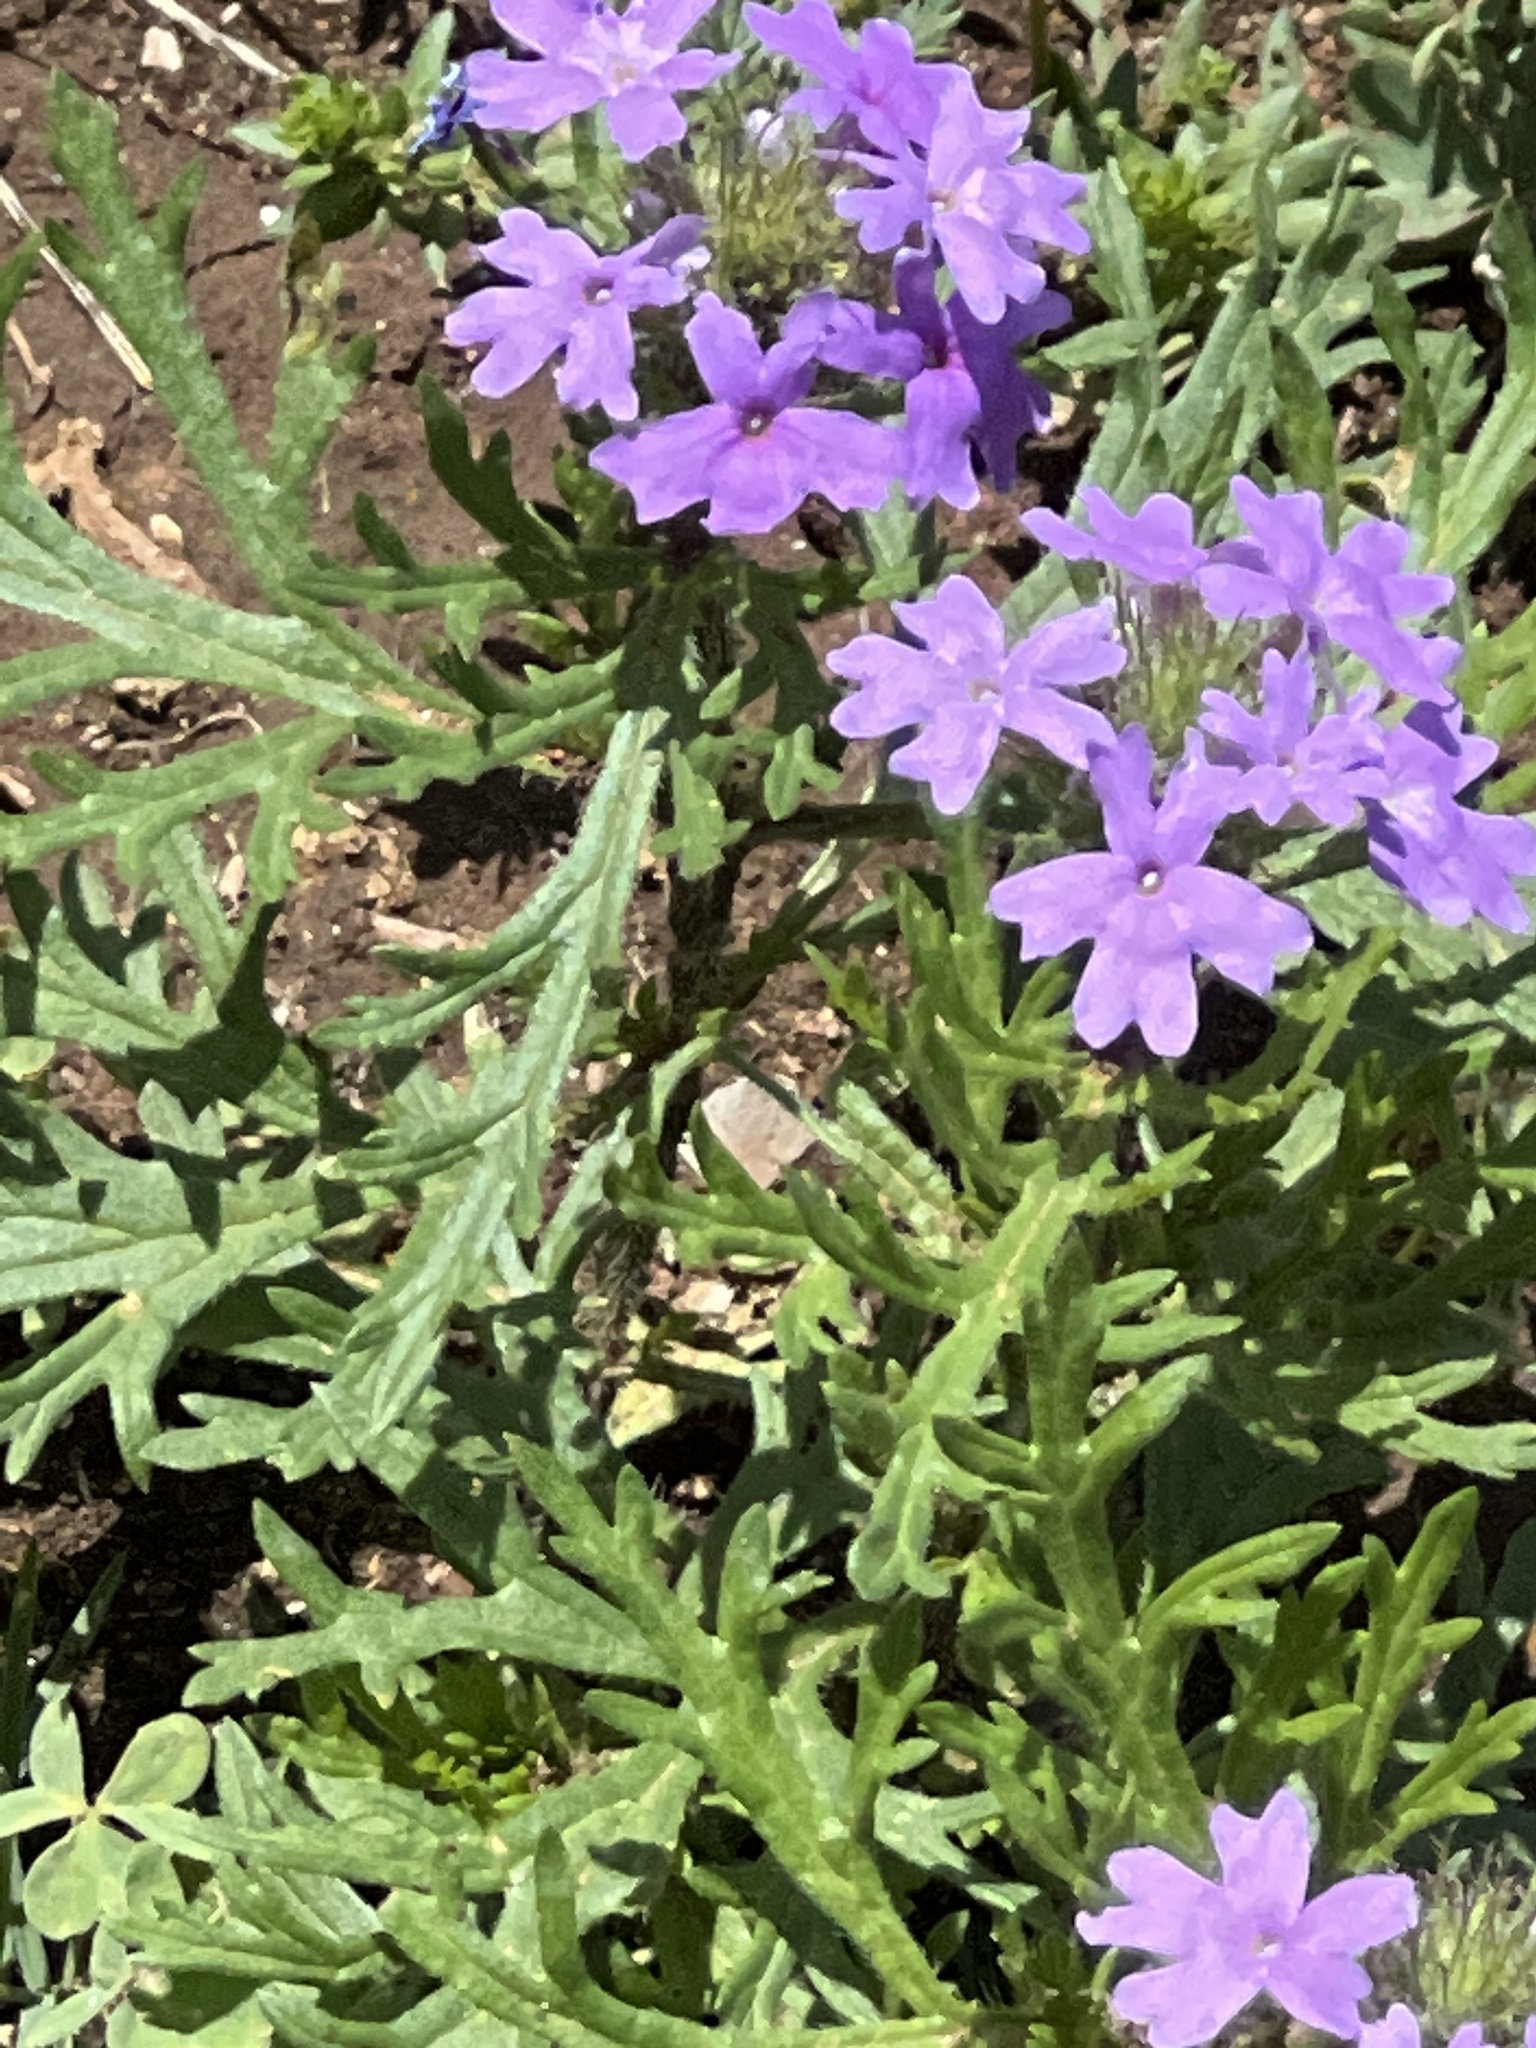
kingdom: Plantae
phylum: Tracheophyta
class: Magnoliopsida
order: Lamiales
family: Verbenaceae
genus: Verbena
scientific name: Verbena bipinnatifida
